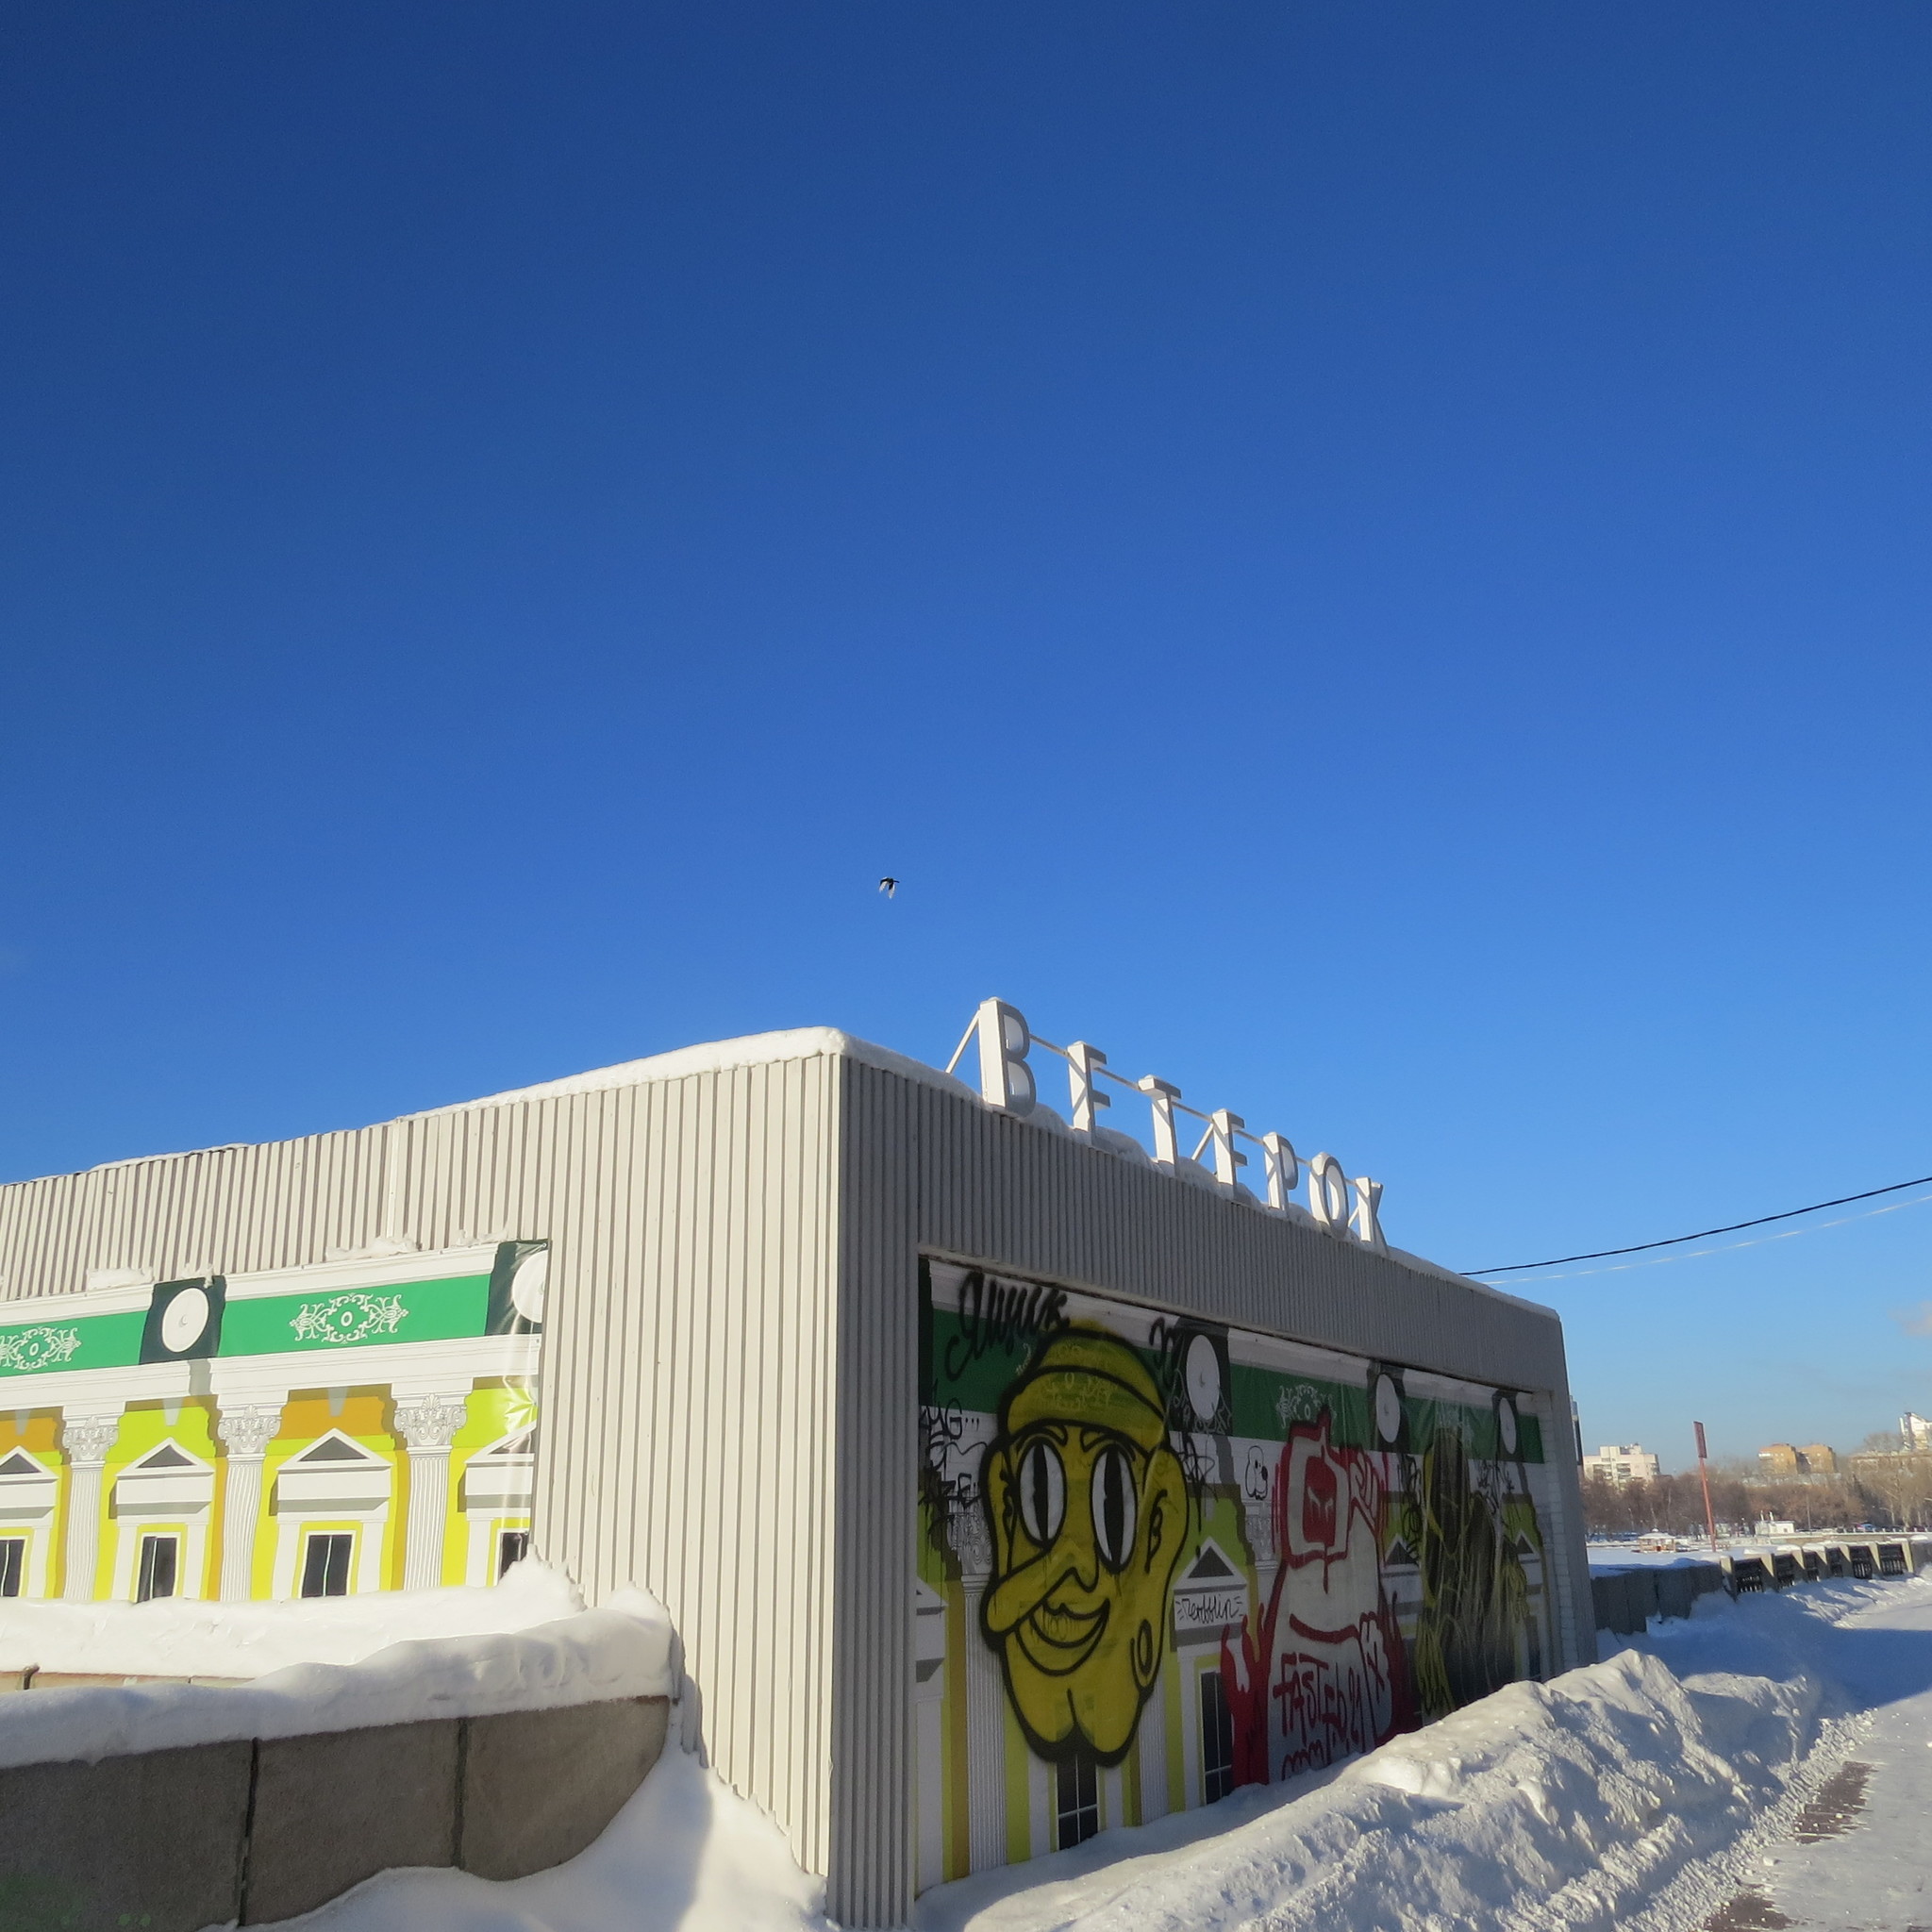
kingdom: Animalia
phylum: Chordata
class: Aves
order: Passeriformes
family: Corvidae
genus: Pica
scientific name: Pica pica
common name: Eurasian magpie
